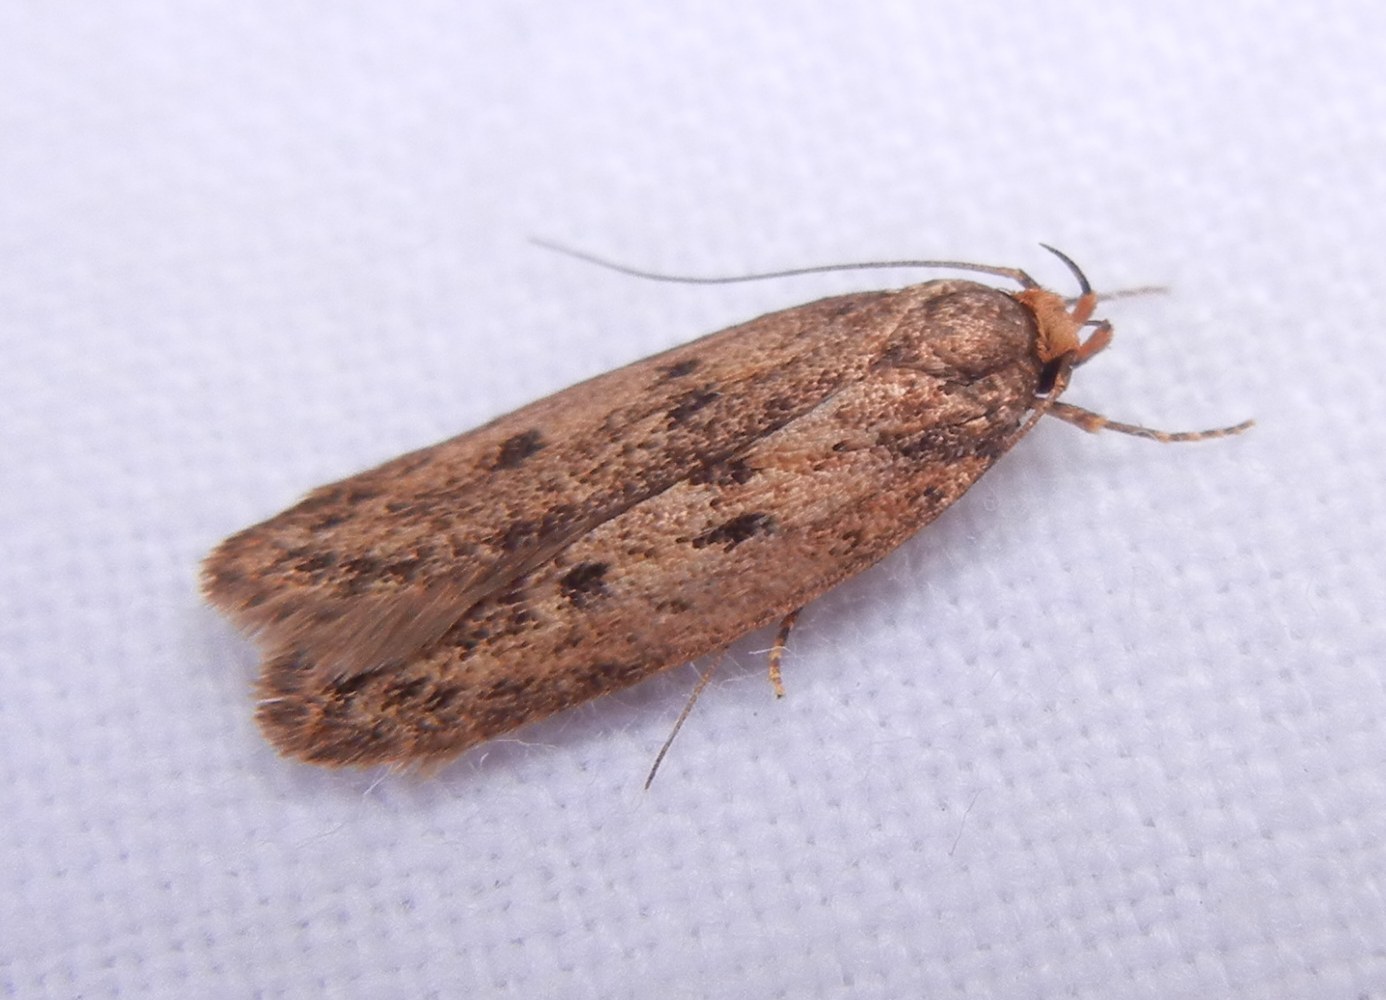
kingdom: Animalia
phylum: Arthropoda
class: Insecta
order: Lepidoptera
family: Oecophoridae
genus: Hofmannophila
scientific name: Hofmannophila pseudospretella
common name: Brown house moth
